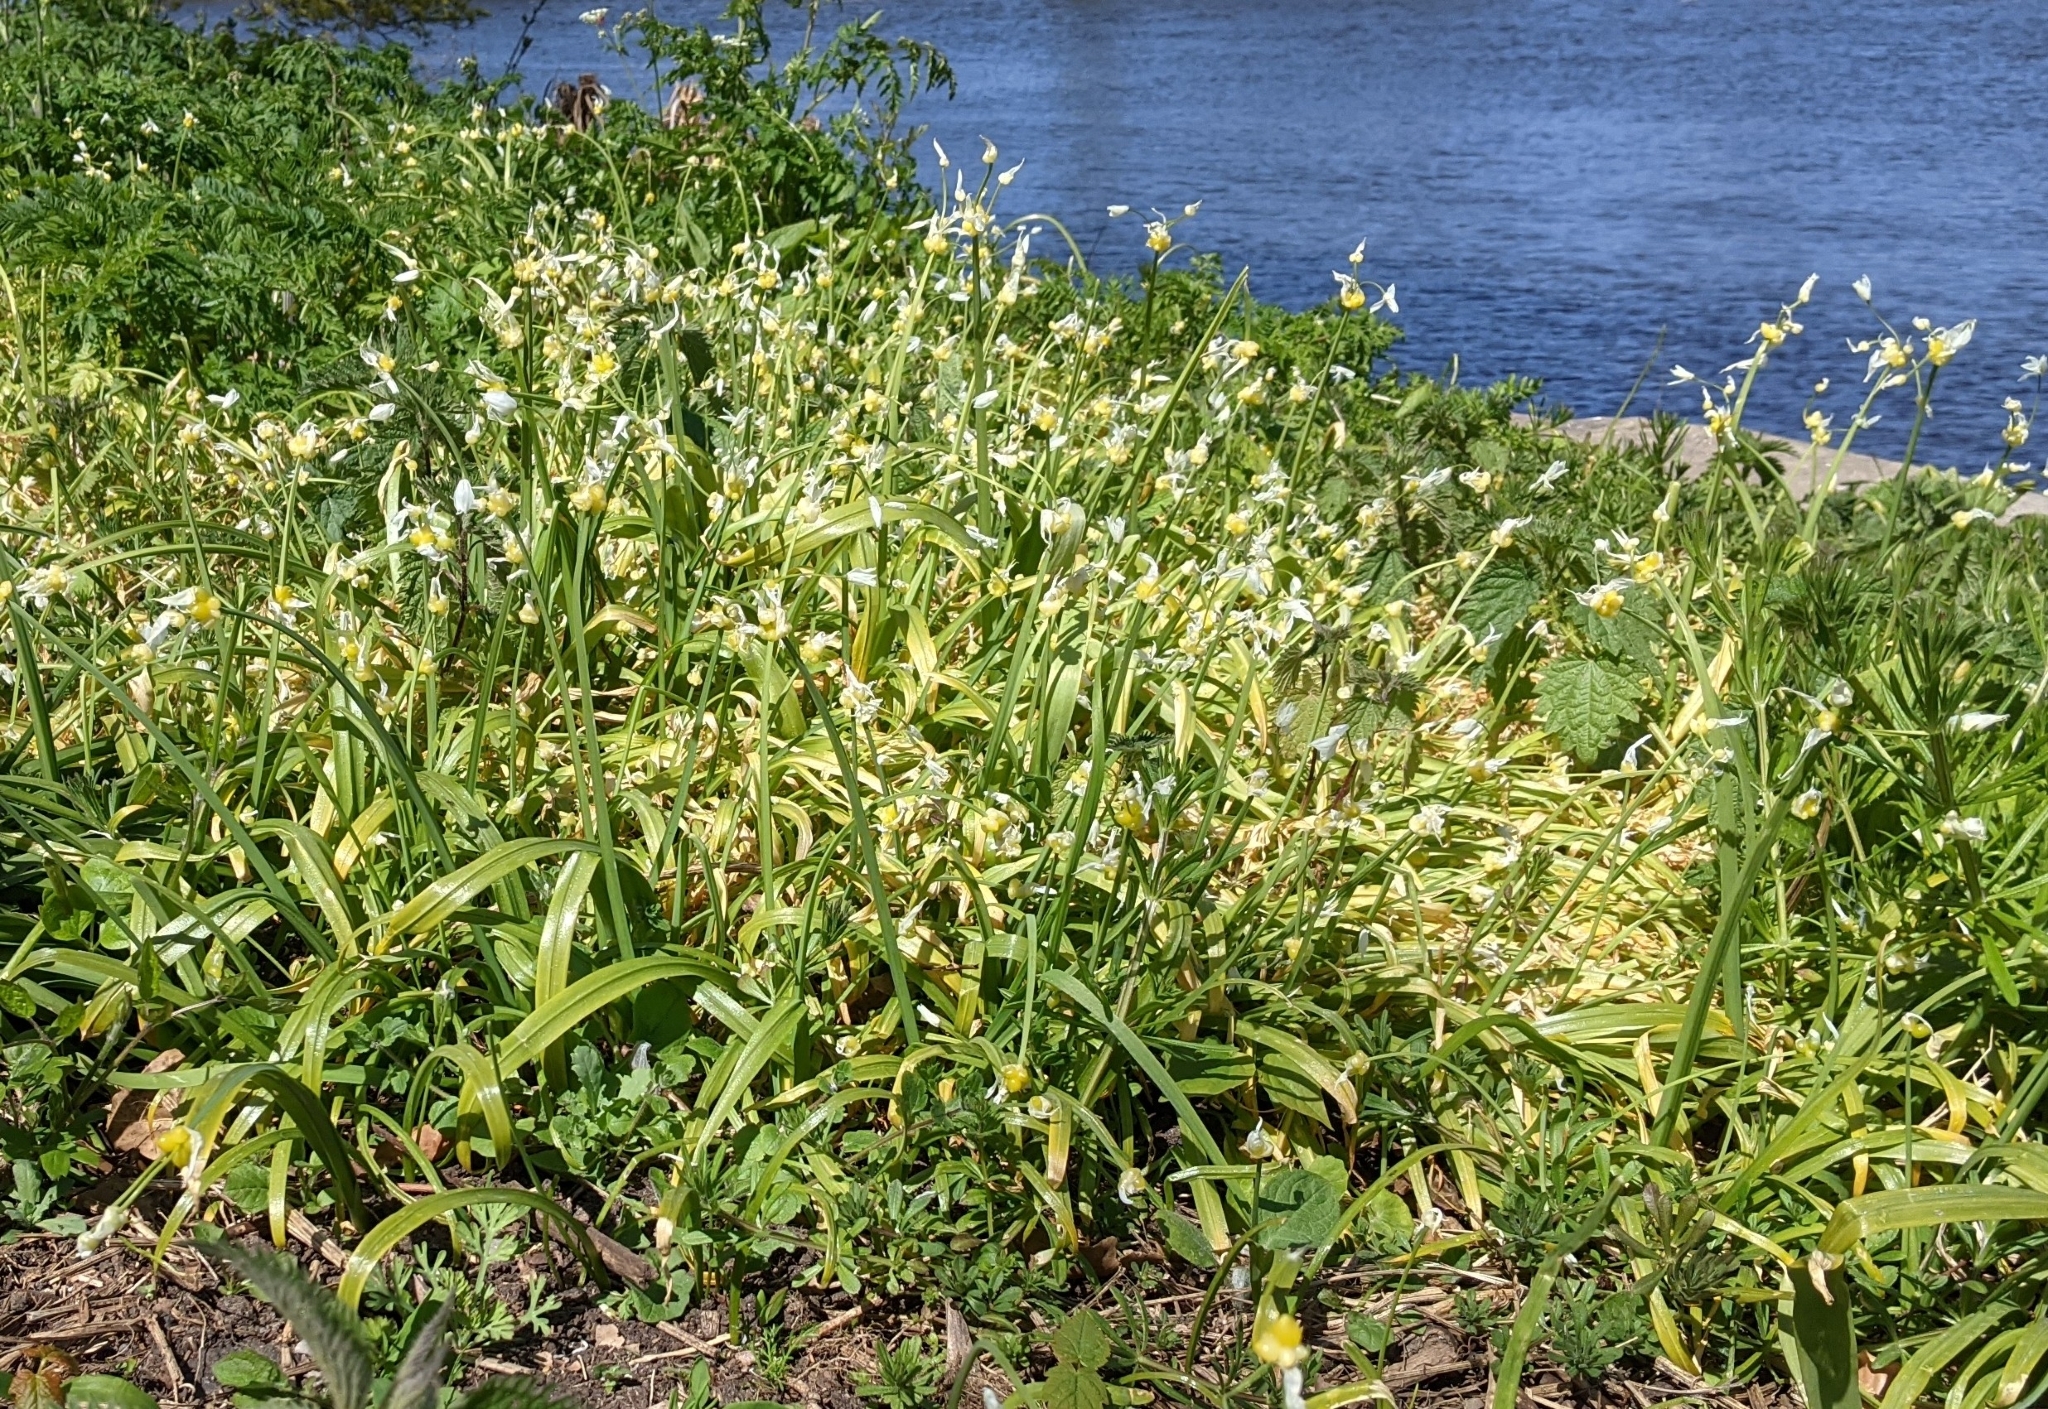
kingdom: Plantae
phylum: Tracheophyta
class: Liliopsida
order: Asparagales
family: Amaryllidaceae
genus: Allium
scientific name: Allium paradoxum
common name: Few-flowered garlic
